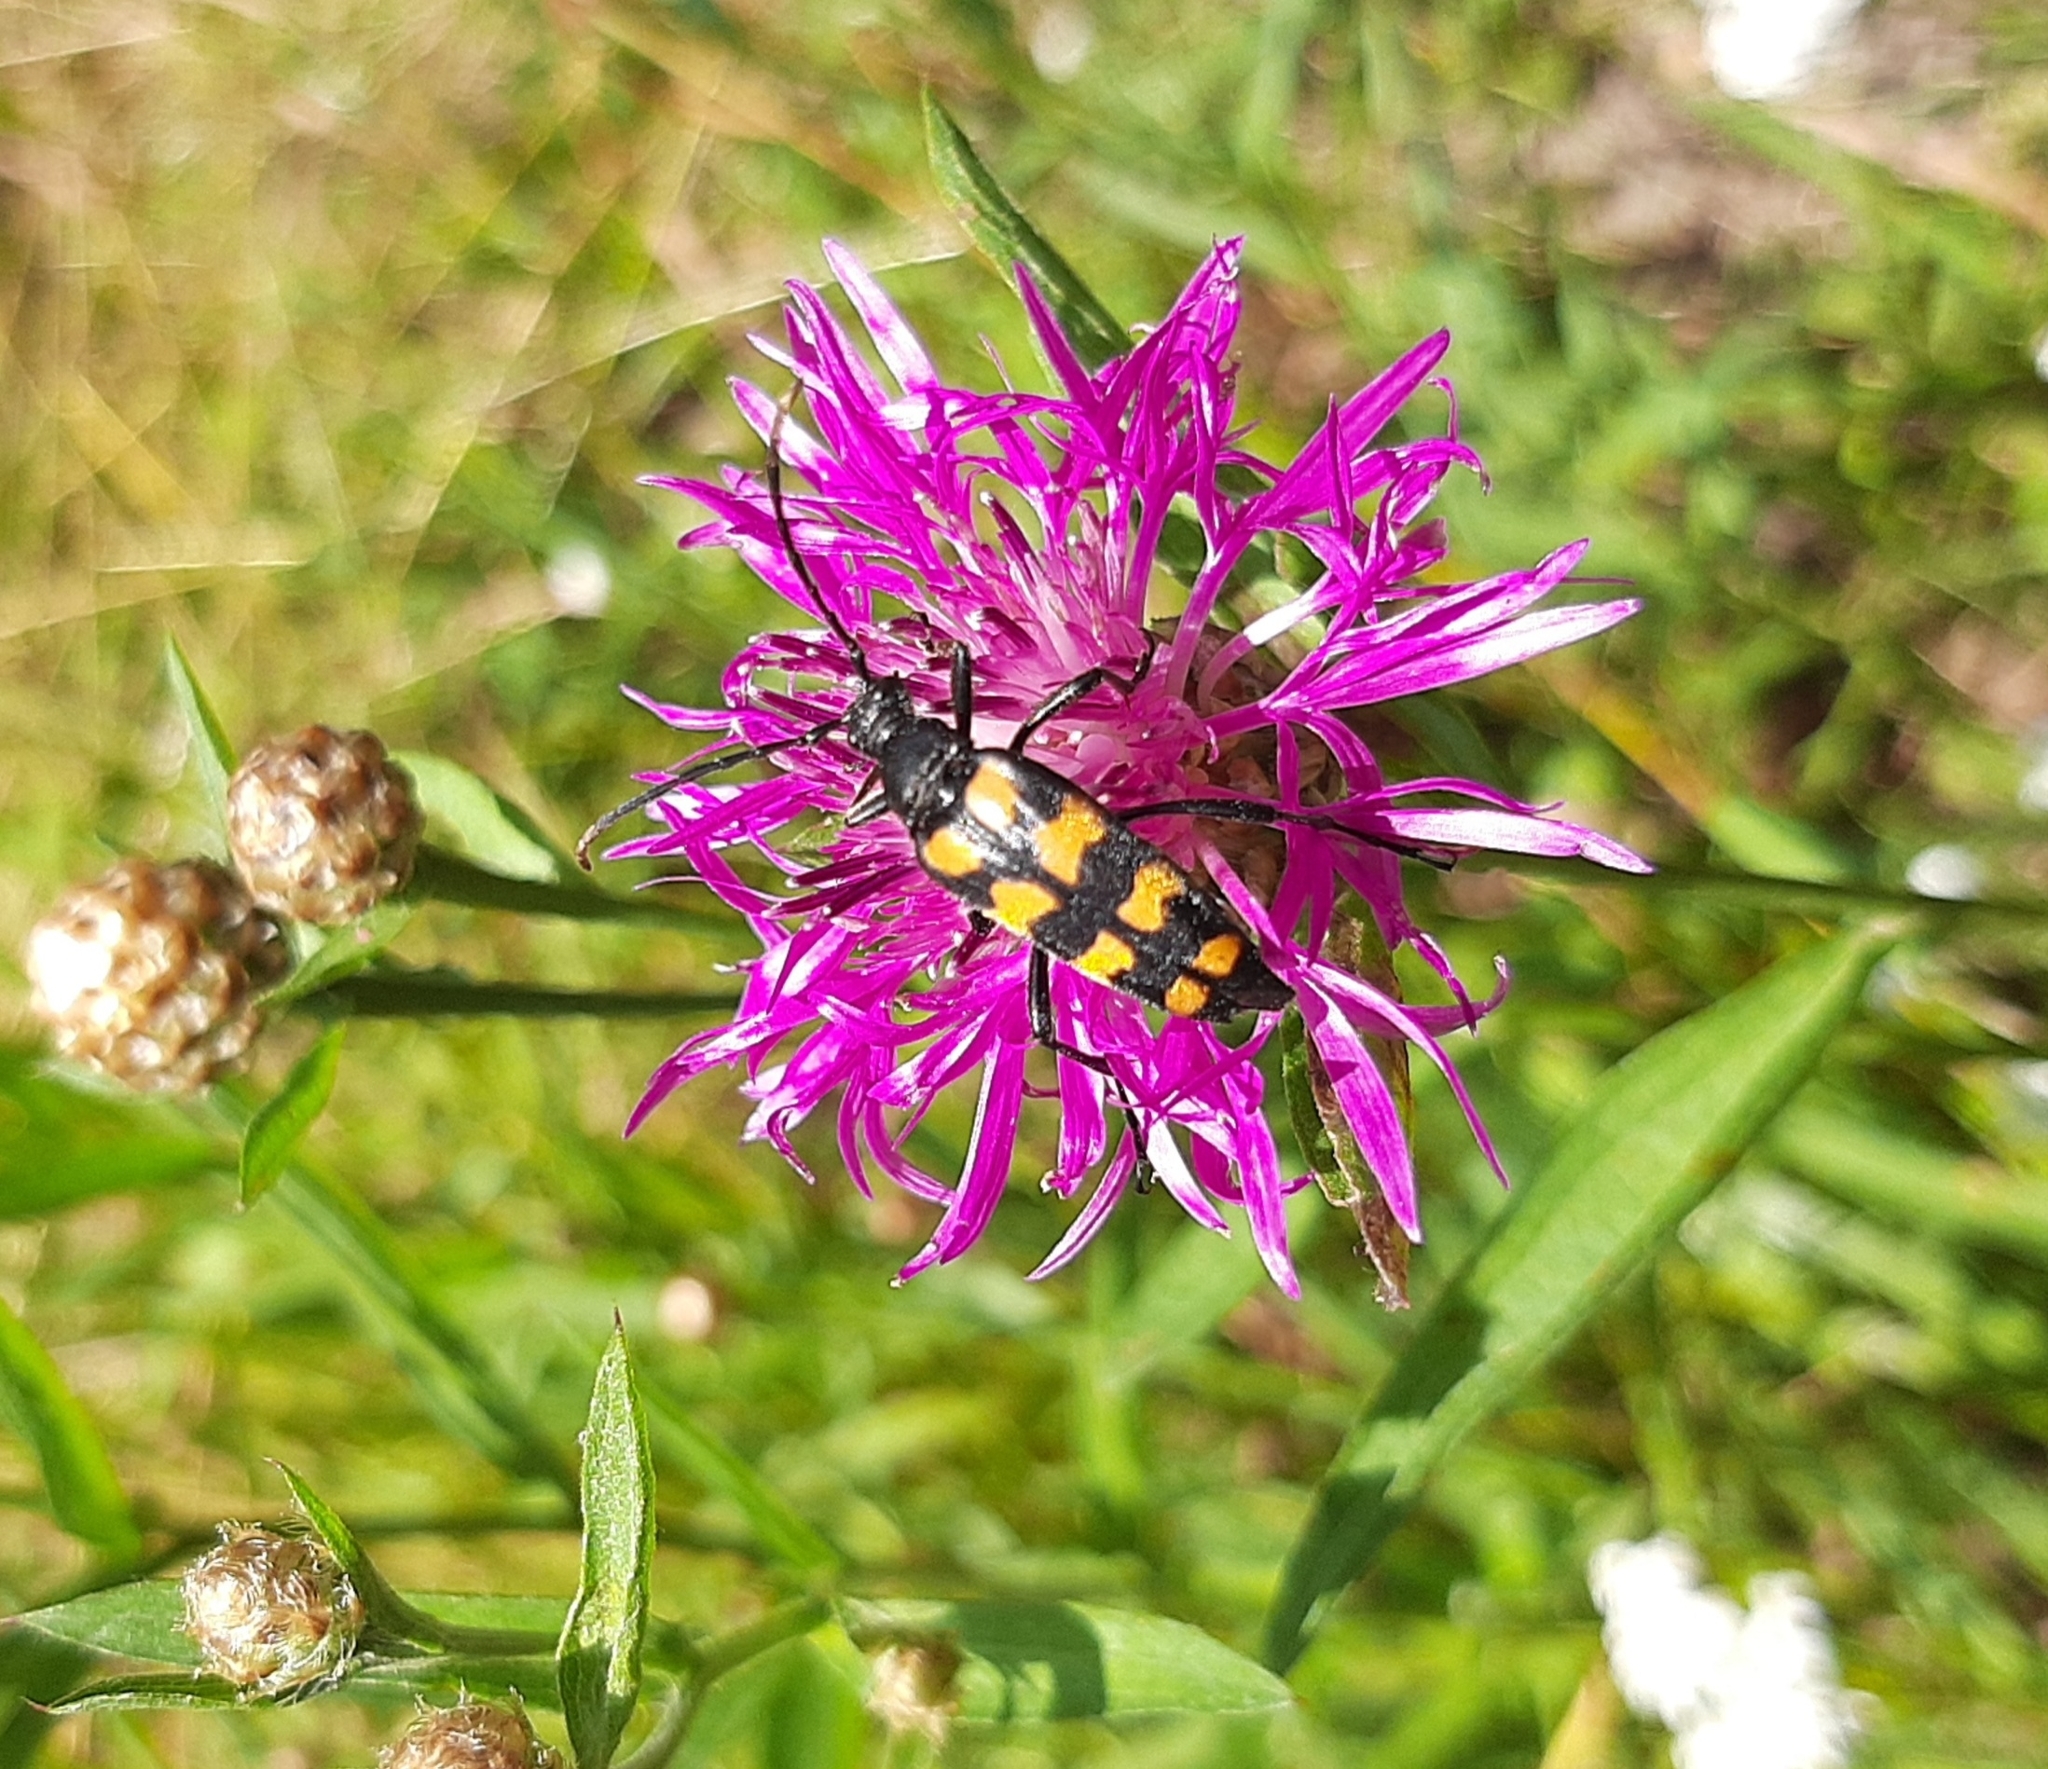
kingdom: Animalia
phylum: Arthropoda
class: Insecta
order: Coleoptera
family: Cerambycidae
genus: Leptura
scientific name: Leptura quadrifasciata
